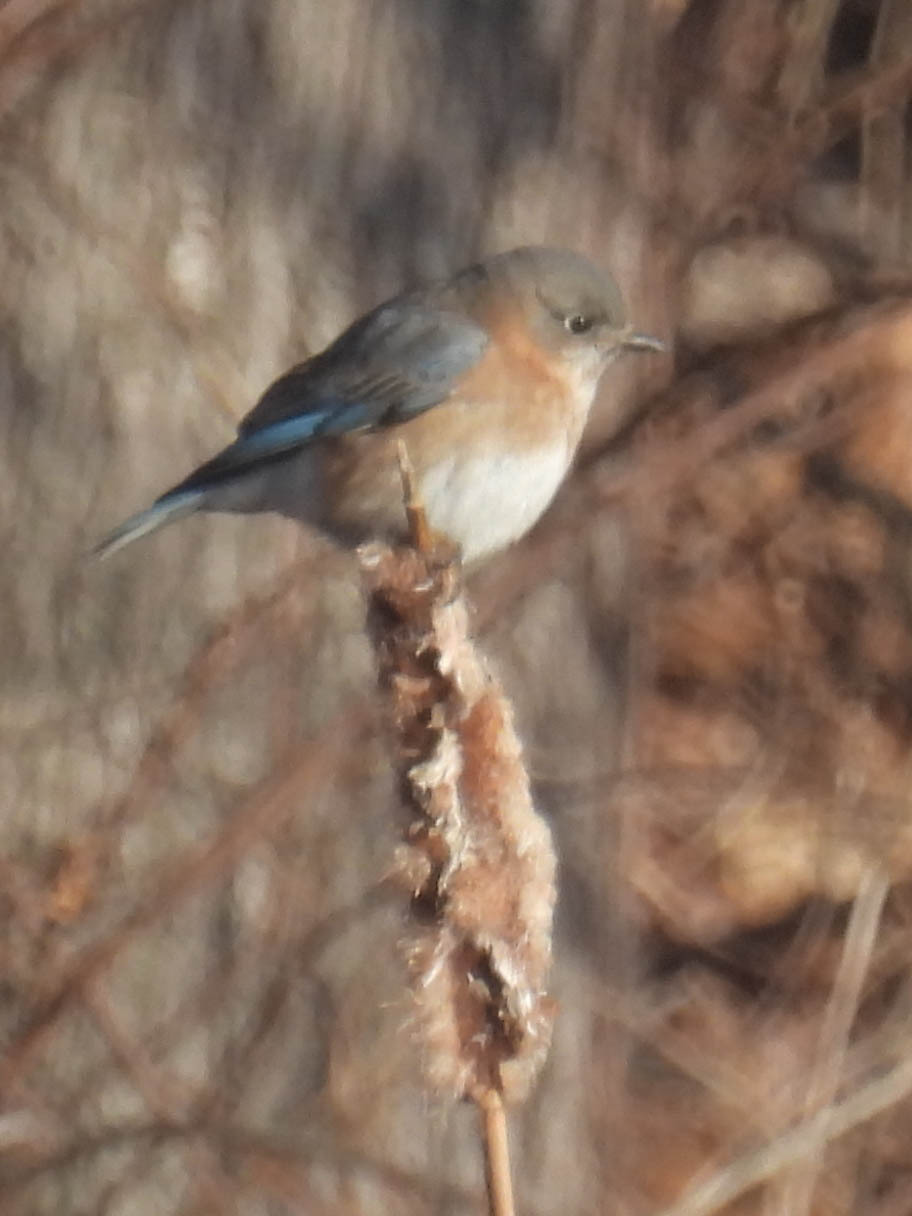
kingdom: Animalia
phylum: Chordata
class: Aves
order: Passeriformes
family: Turdidae
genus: Sialia
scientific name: Sialia sialis
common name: Eastern bluebird
